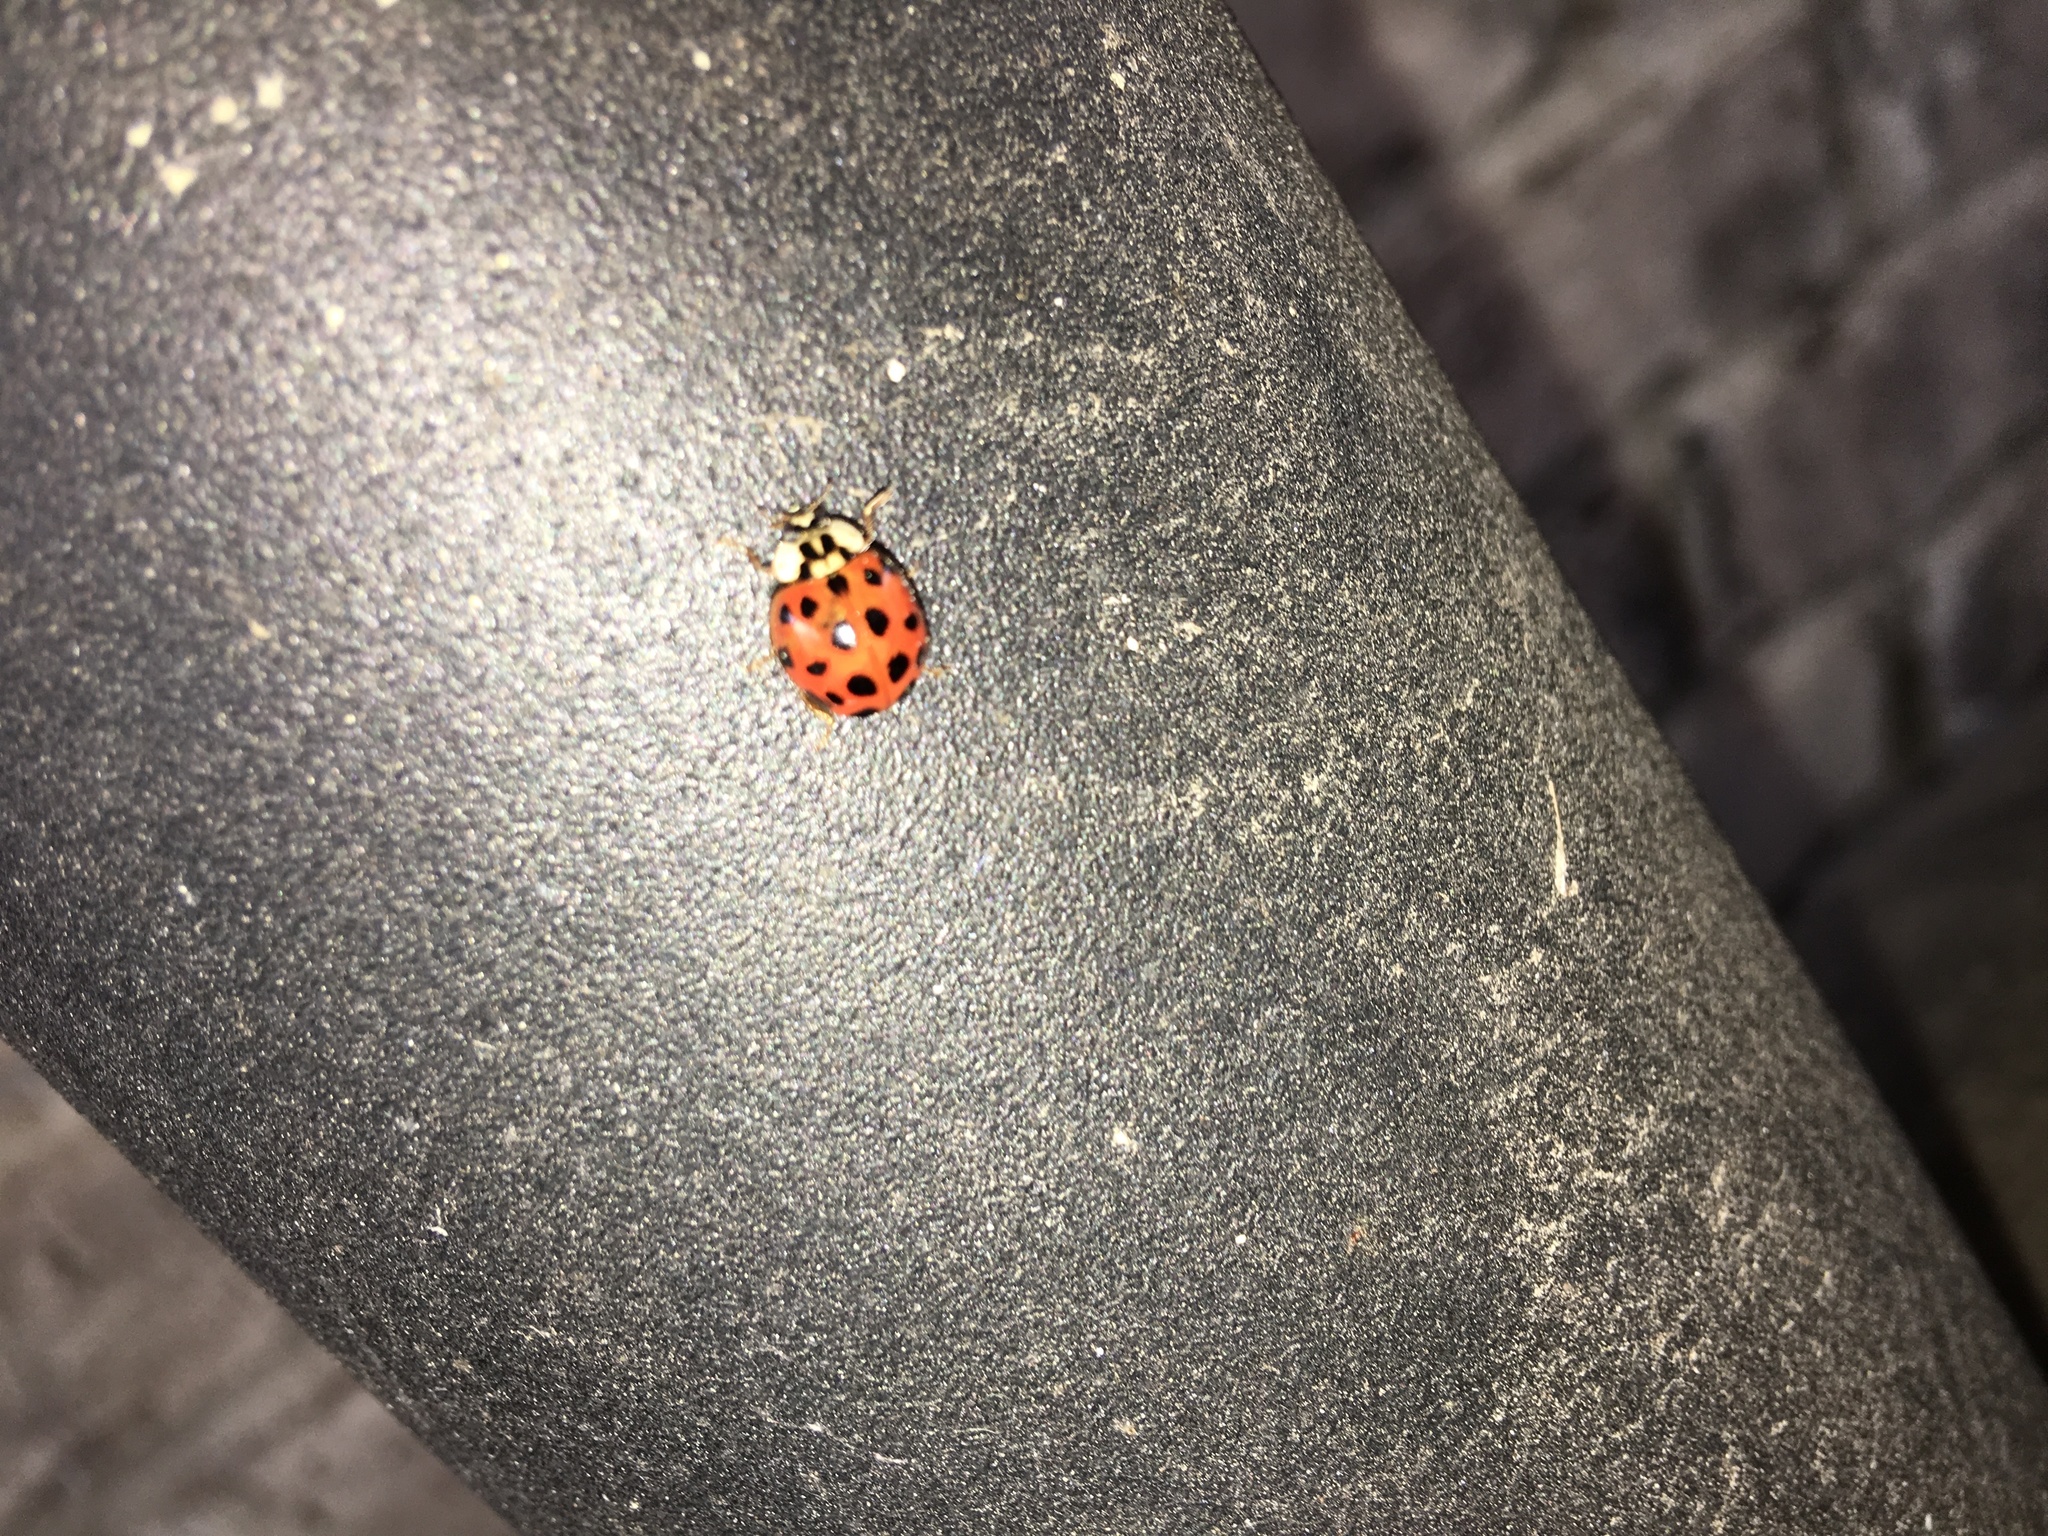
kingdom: Animalia
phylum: Arthropoda
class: Insecta
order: Coleoptera
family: Coccinellidae
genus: Harmonia
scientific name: Harmonia axyridis
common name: Harlequin ladybird
